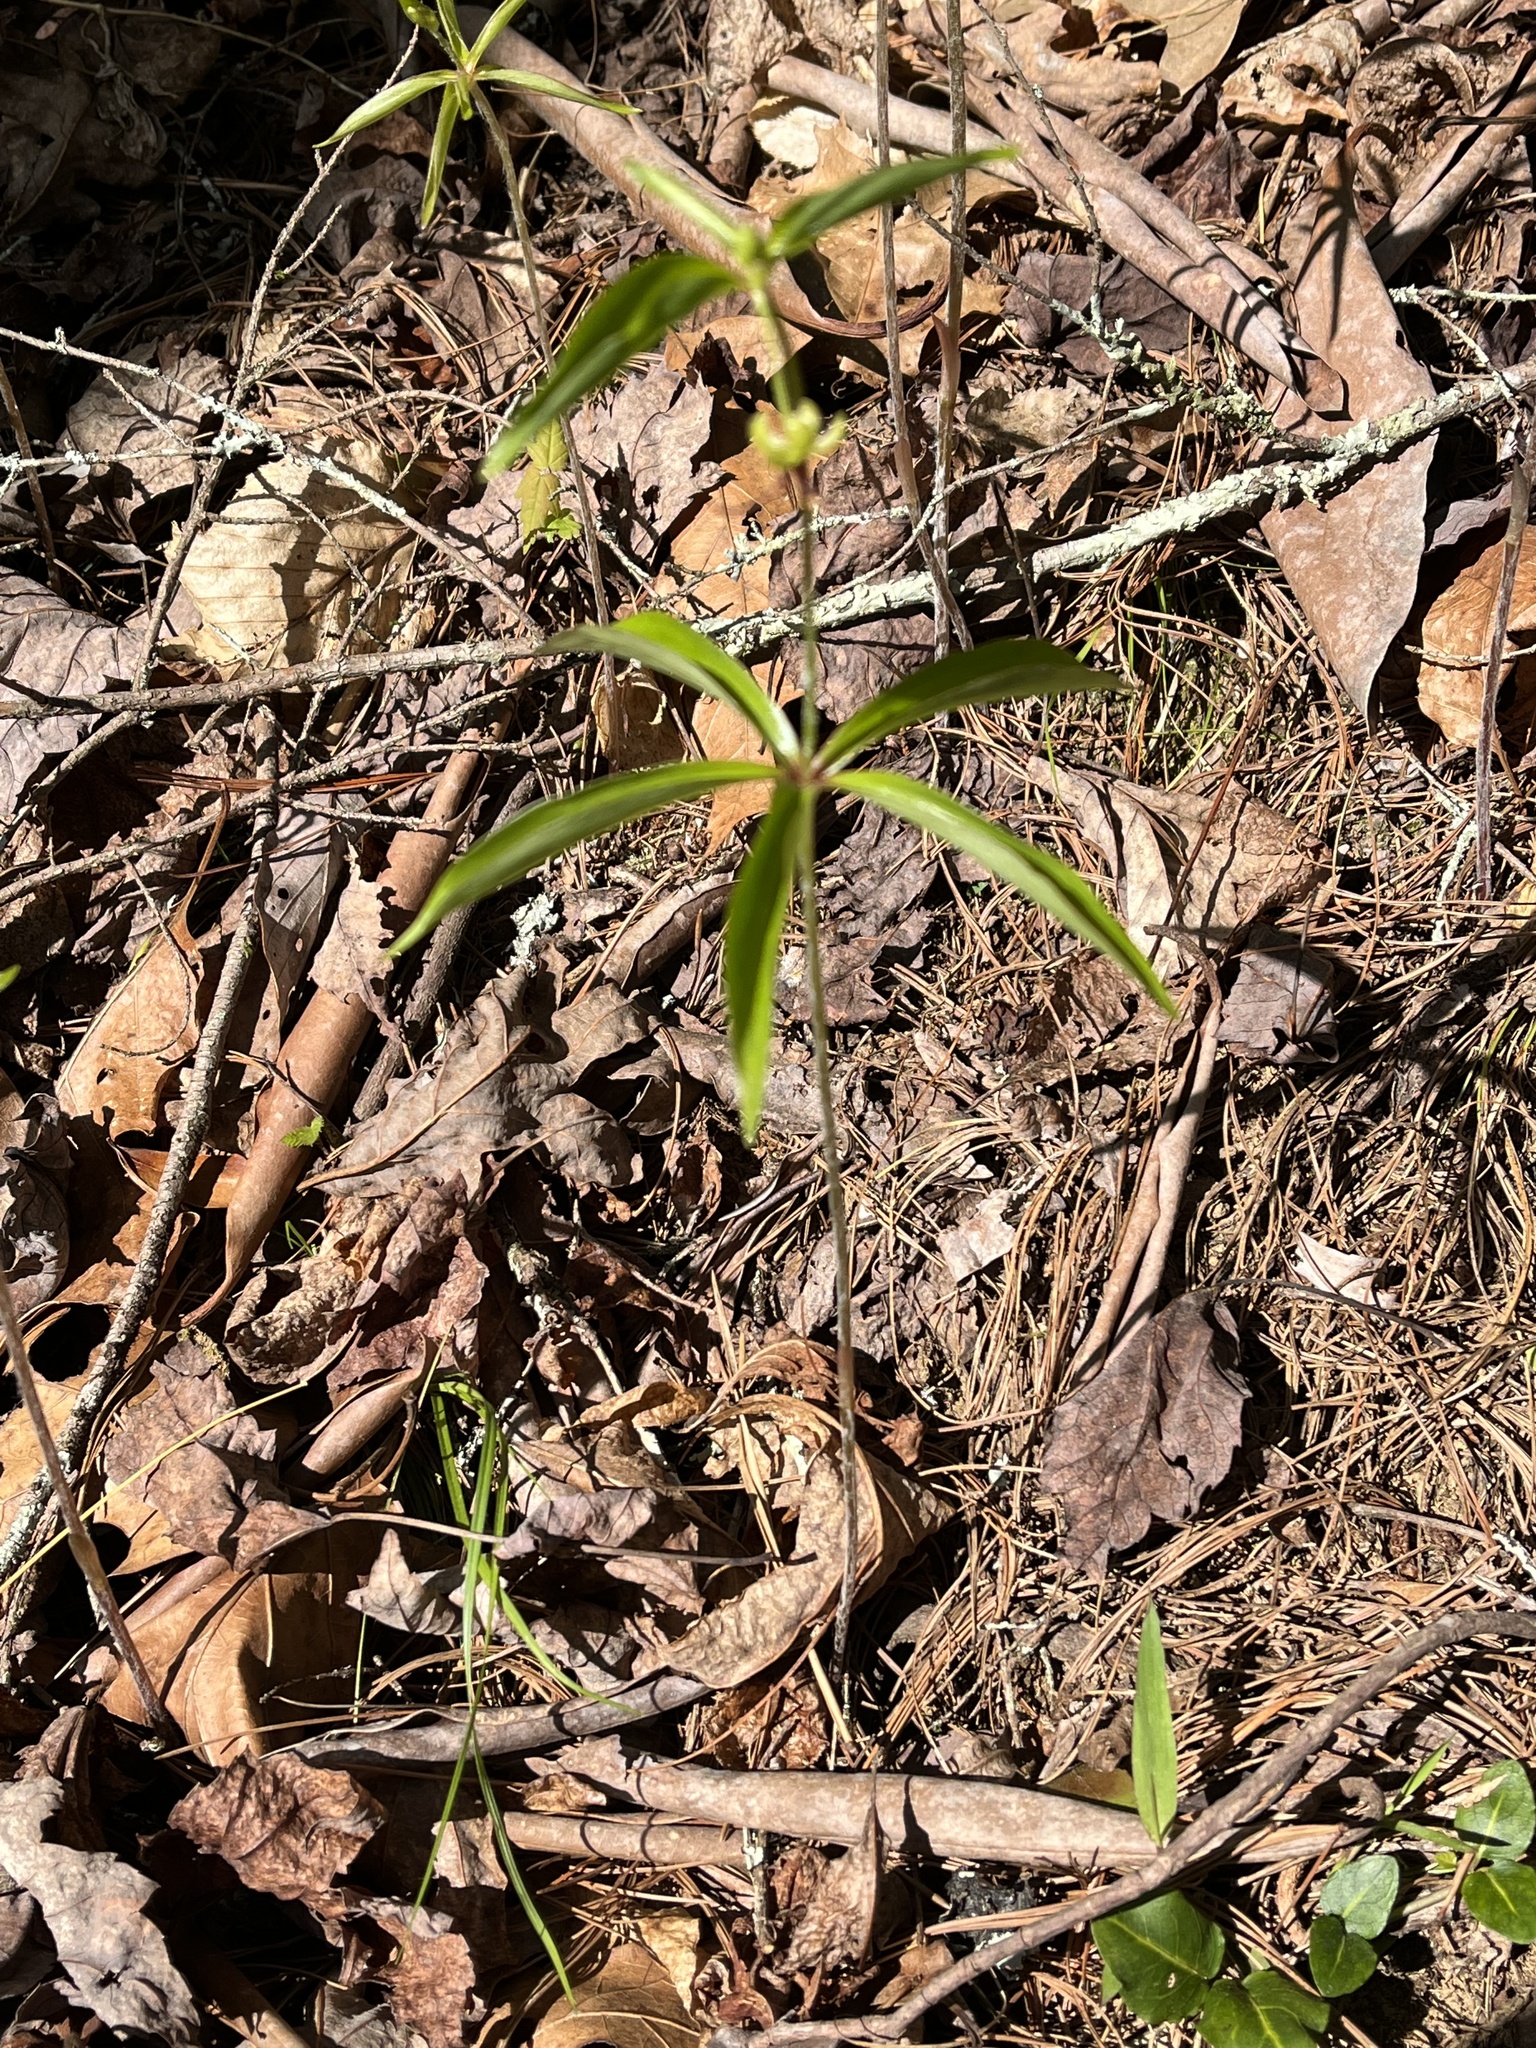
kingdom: Plantae
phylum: Tracheophyta
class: Liliopsida
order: Liliales
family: Liliaceae
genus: Medeola
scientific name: Medeola virginiana
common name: Indian cucumber-root
